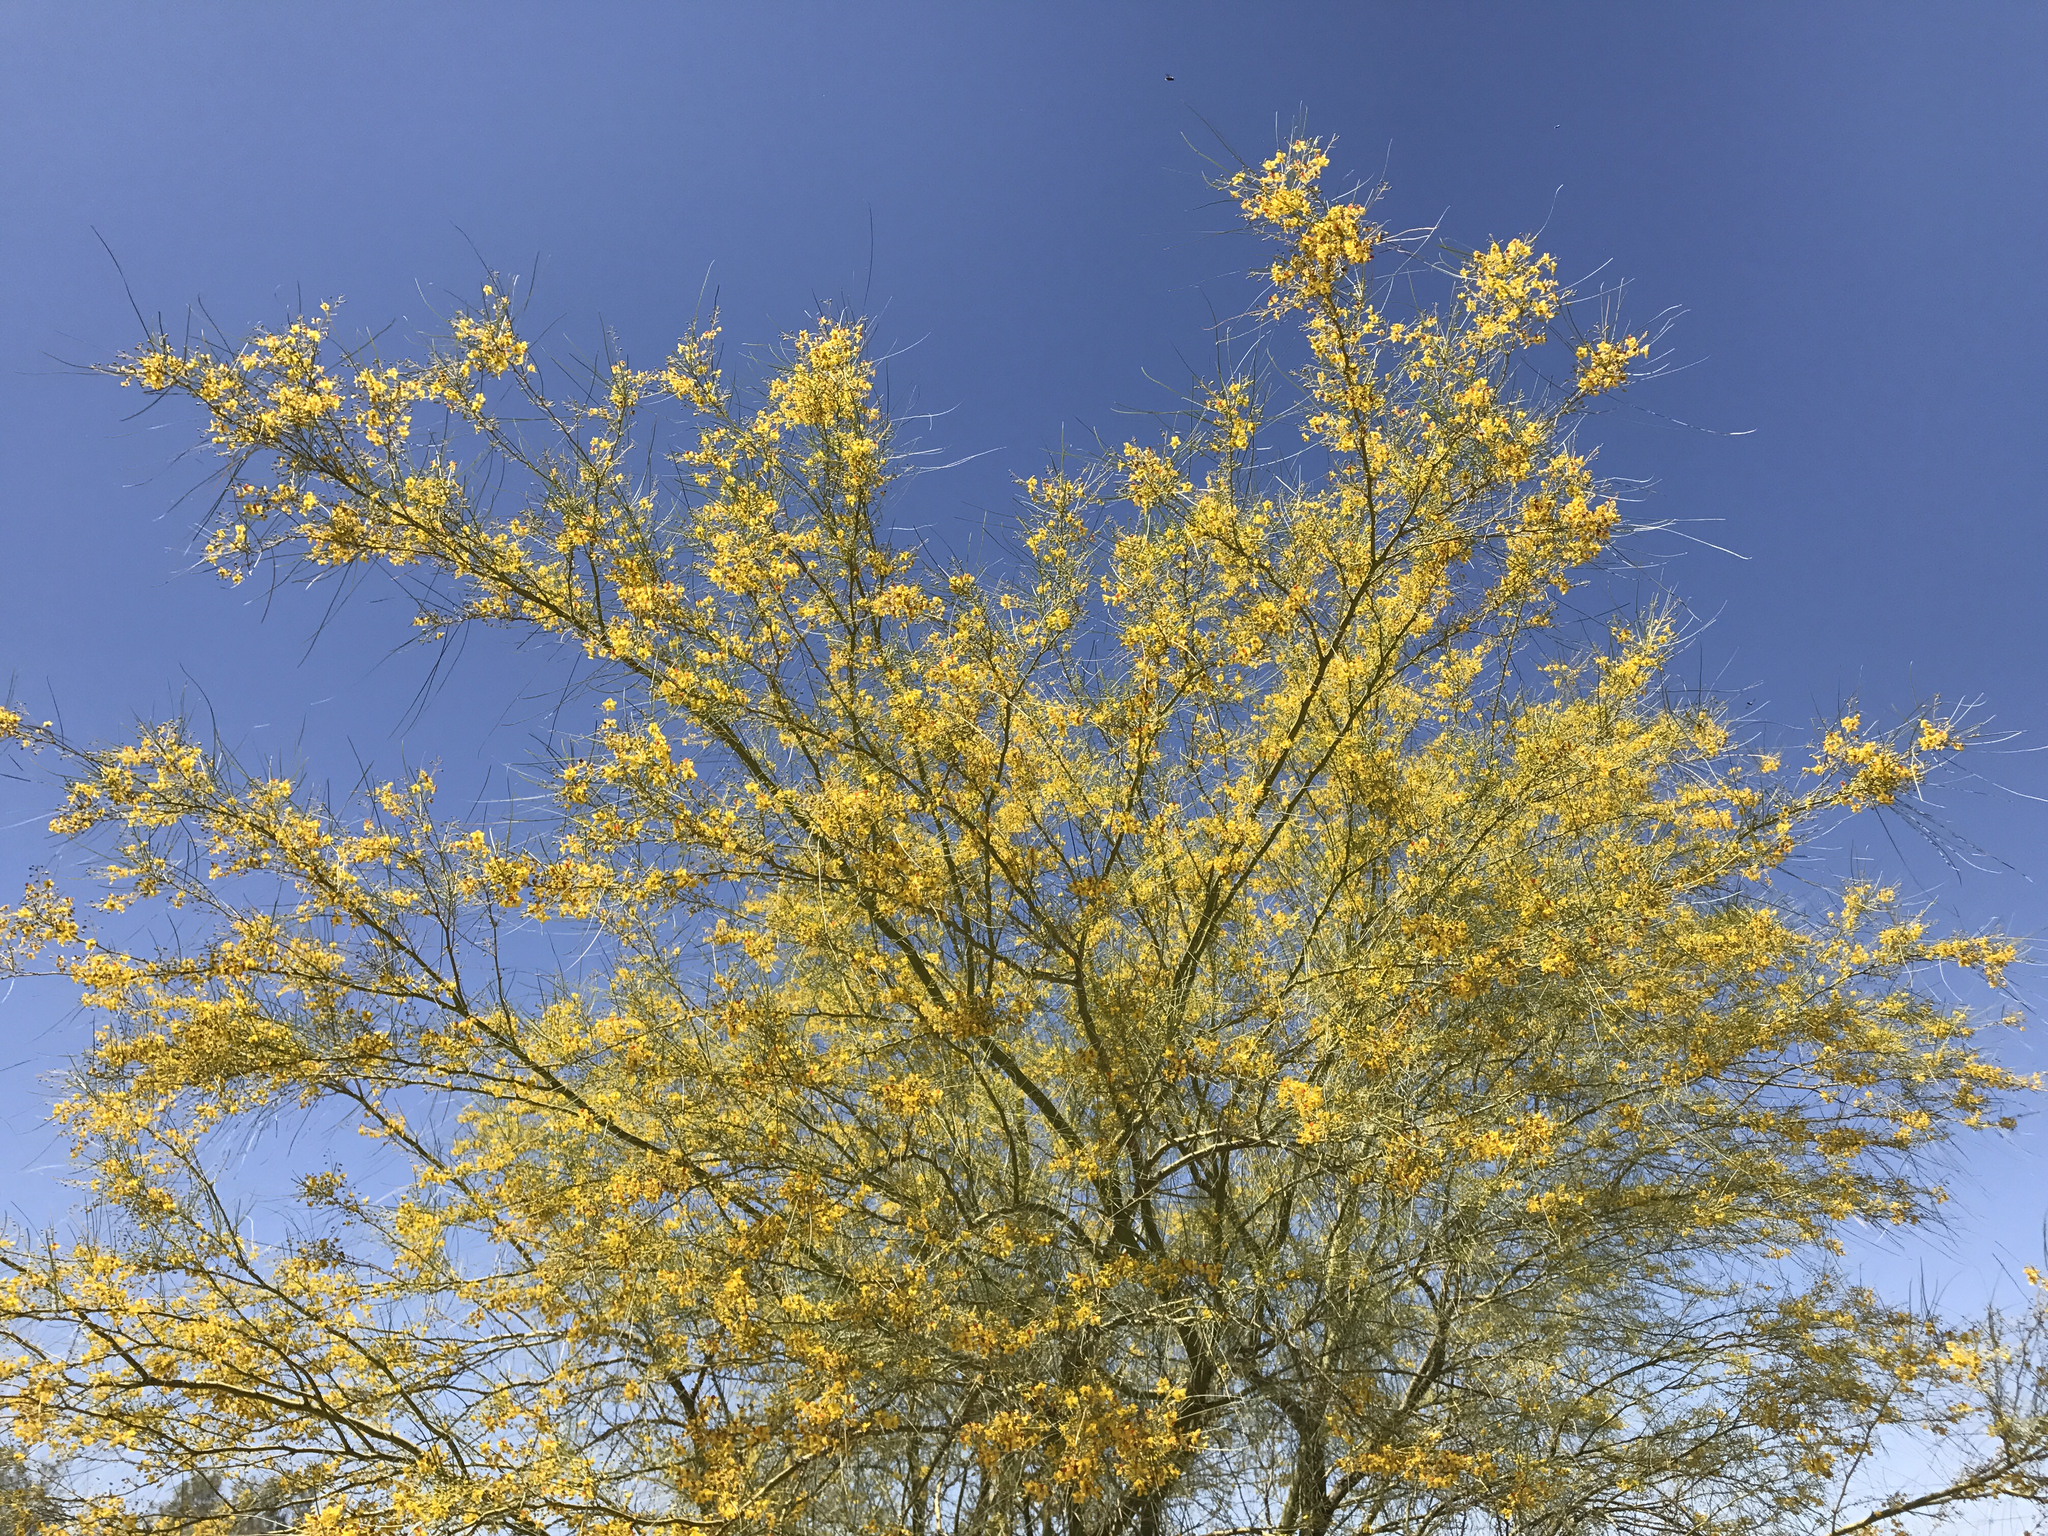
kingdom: Plantae
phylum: Tracheophyta
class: Magnoliopsida
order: Fabales
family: Fabaceae
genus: Parkinsonia
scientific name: Parkinsonia aculeata
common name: Jerusalem thorn
